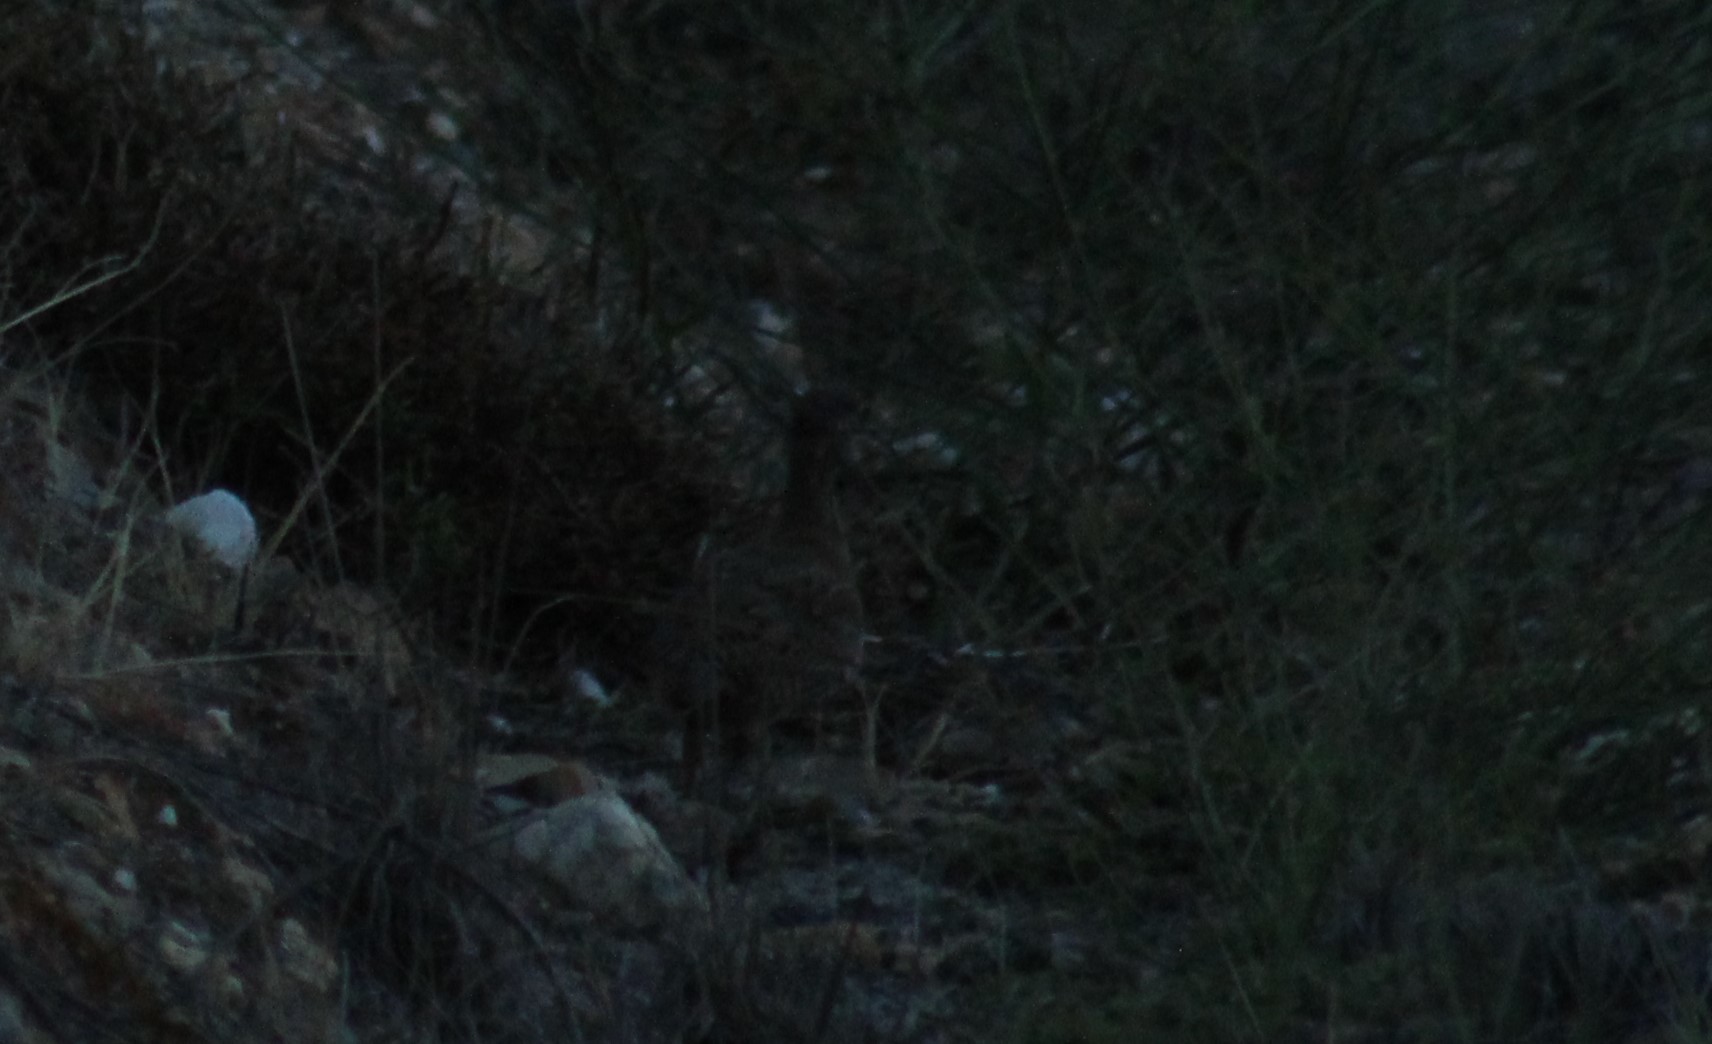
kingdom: Animalia
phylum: Chordata
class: Aves
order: Galliformes
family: Phasianidae
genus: Alectoris
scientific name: Alectoris rufa
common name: Red-legged partridge
